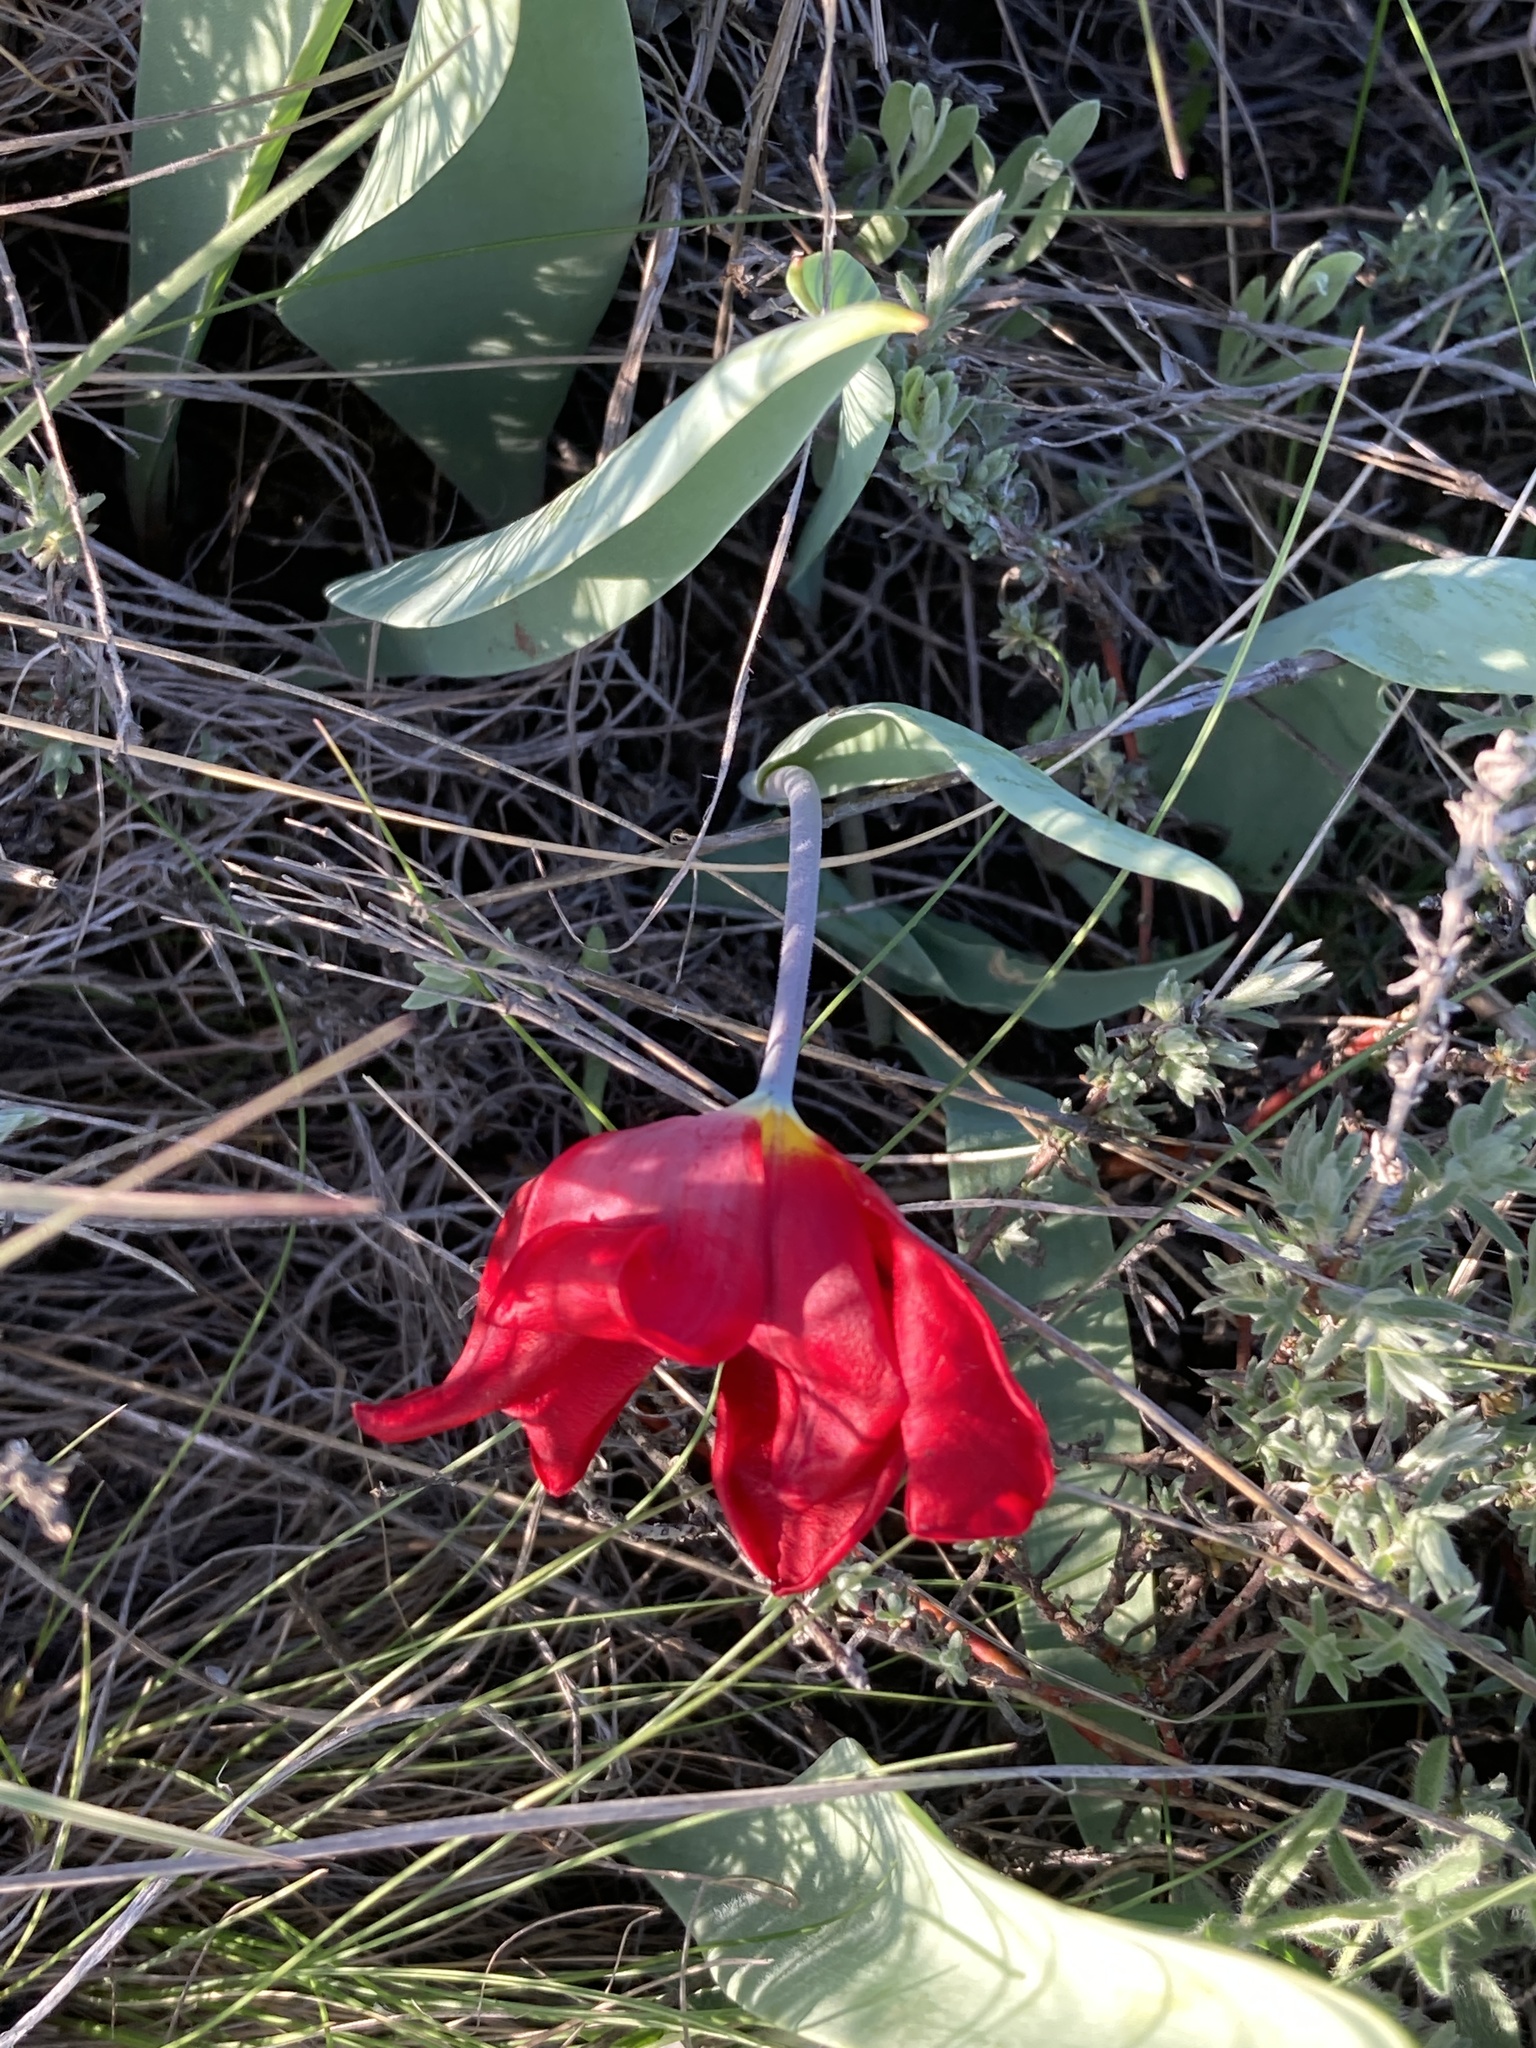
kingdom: Plantae
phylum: Tracheophyta
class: Liliopsida
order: Liliales
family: Liliaceae
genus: Tulipa
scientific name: Tulipa suaveolens
